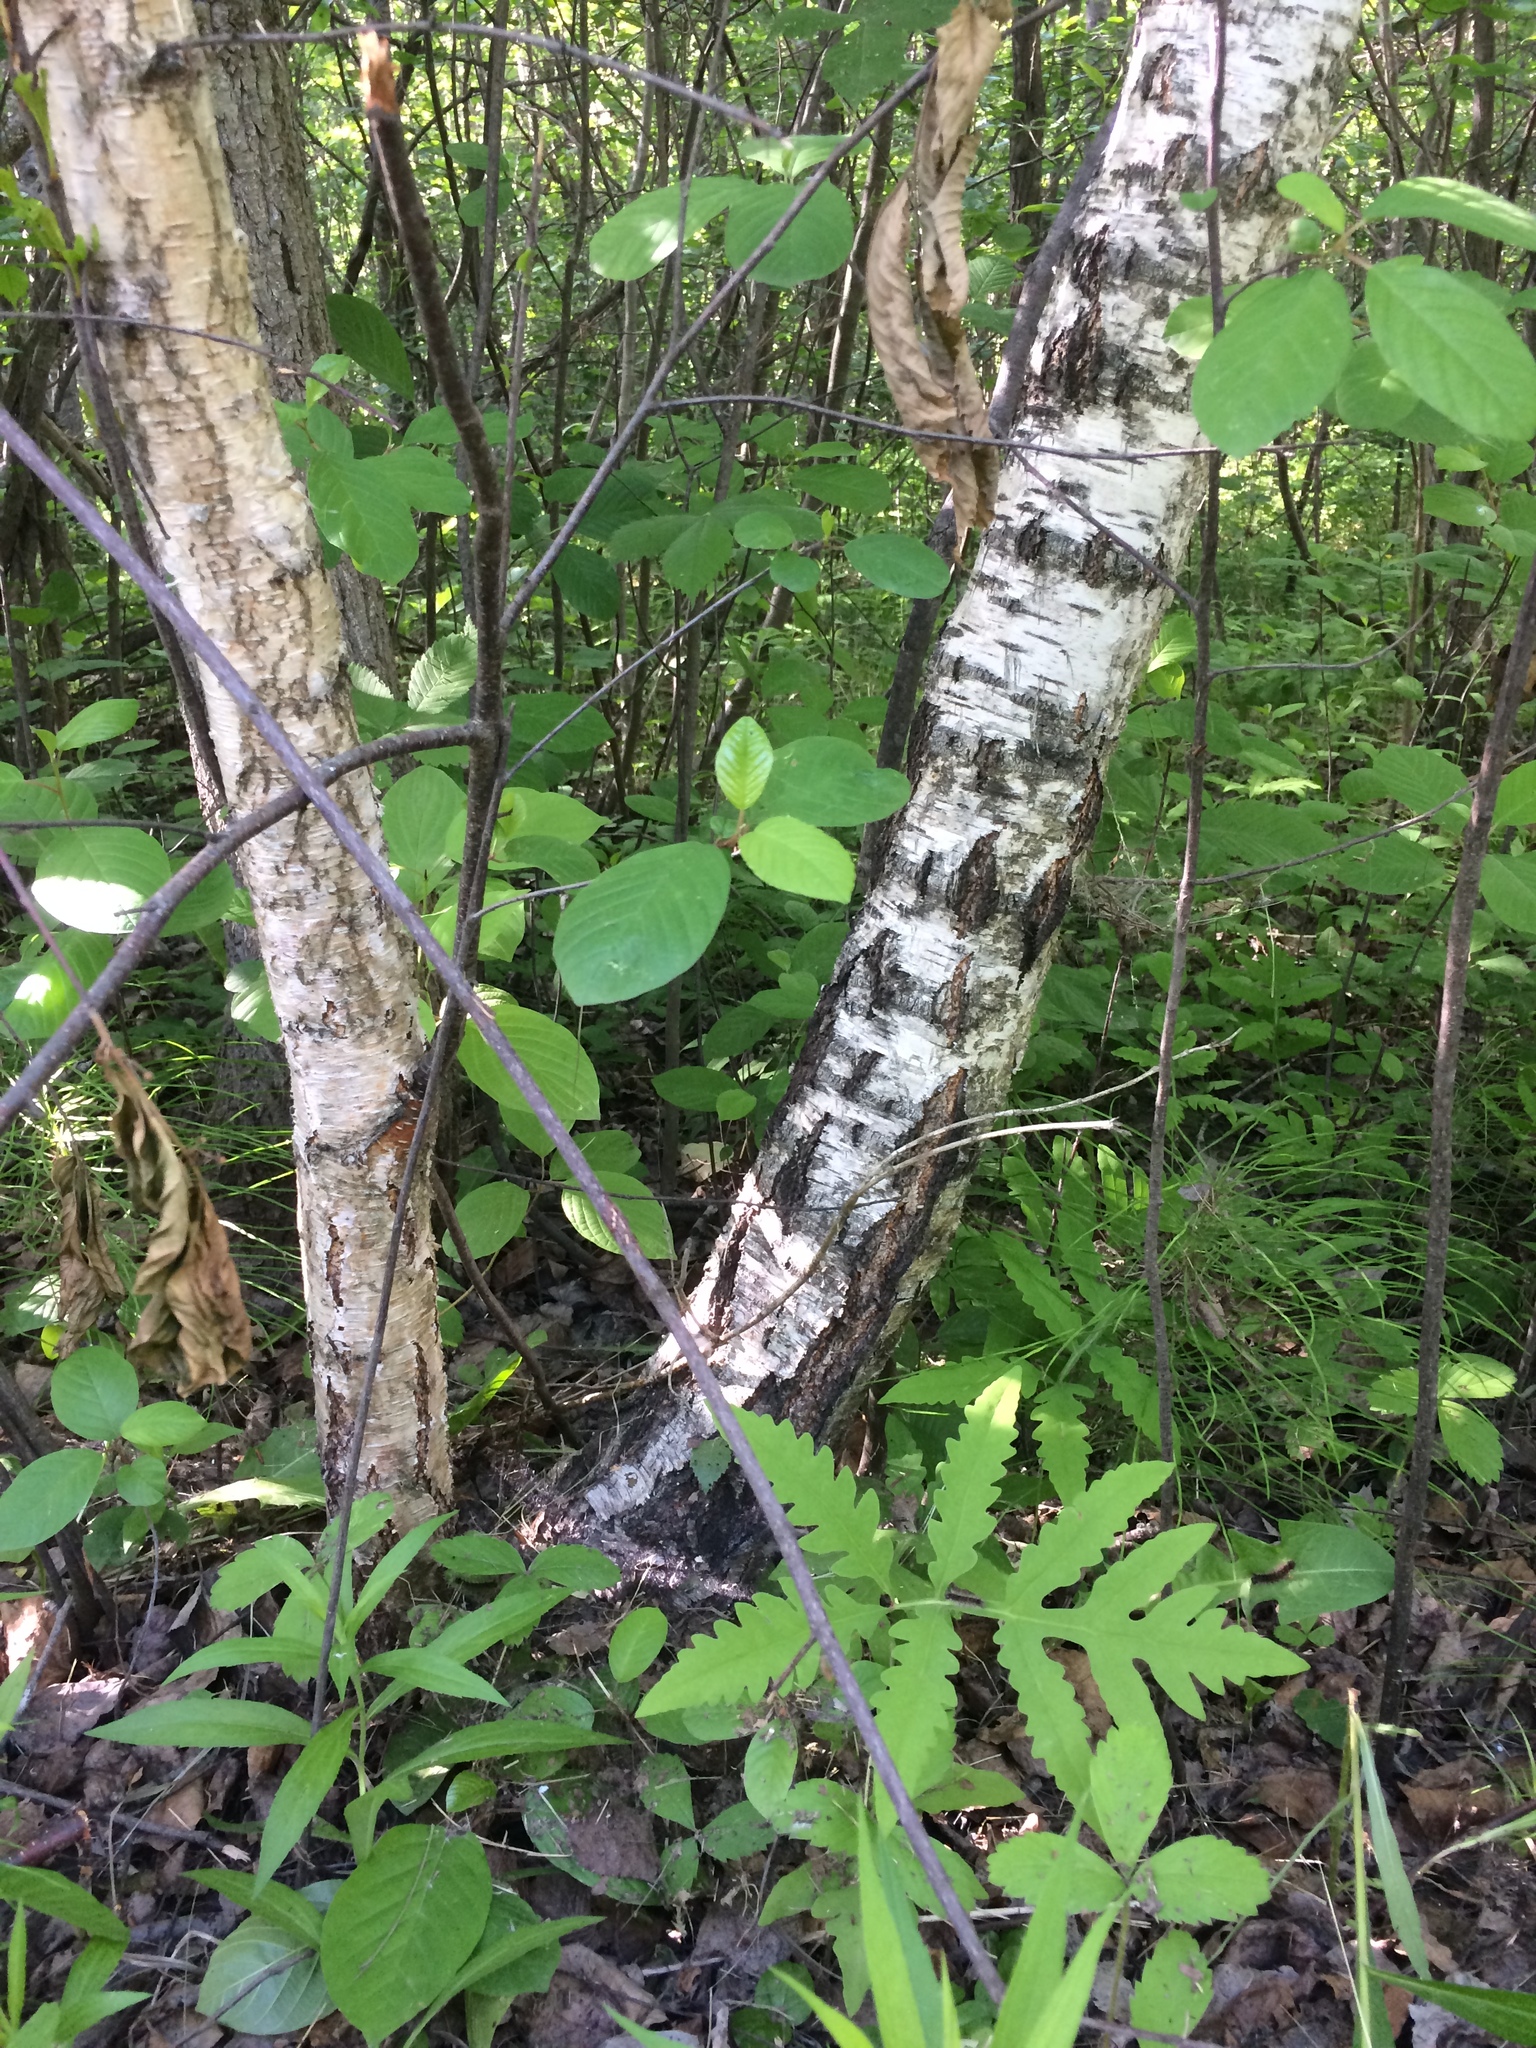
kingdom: Plantae
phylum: Tracheophyta
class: Magnoliopsida
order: Fagales
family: Betulaceae
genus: Betula
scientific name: Betula pendula
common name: Silver birch
